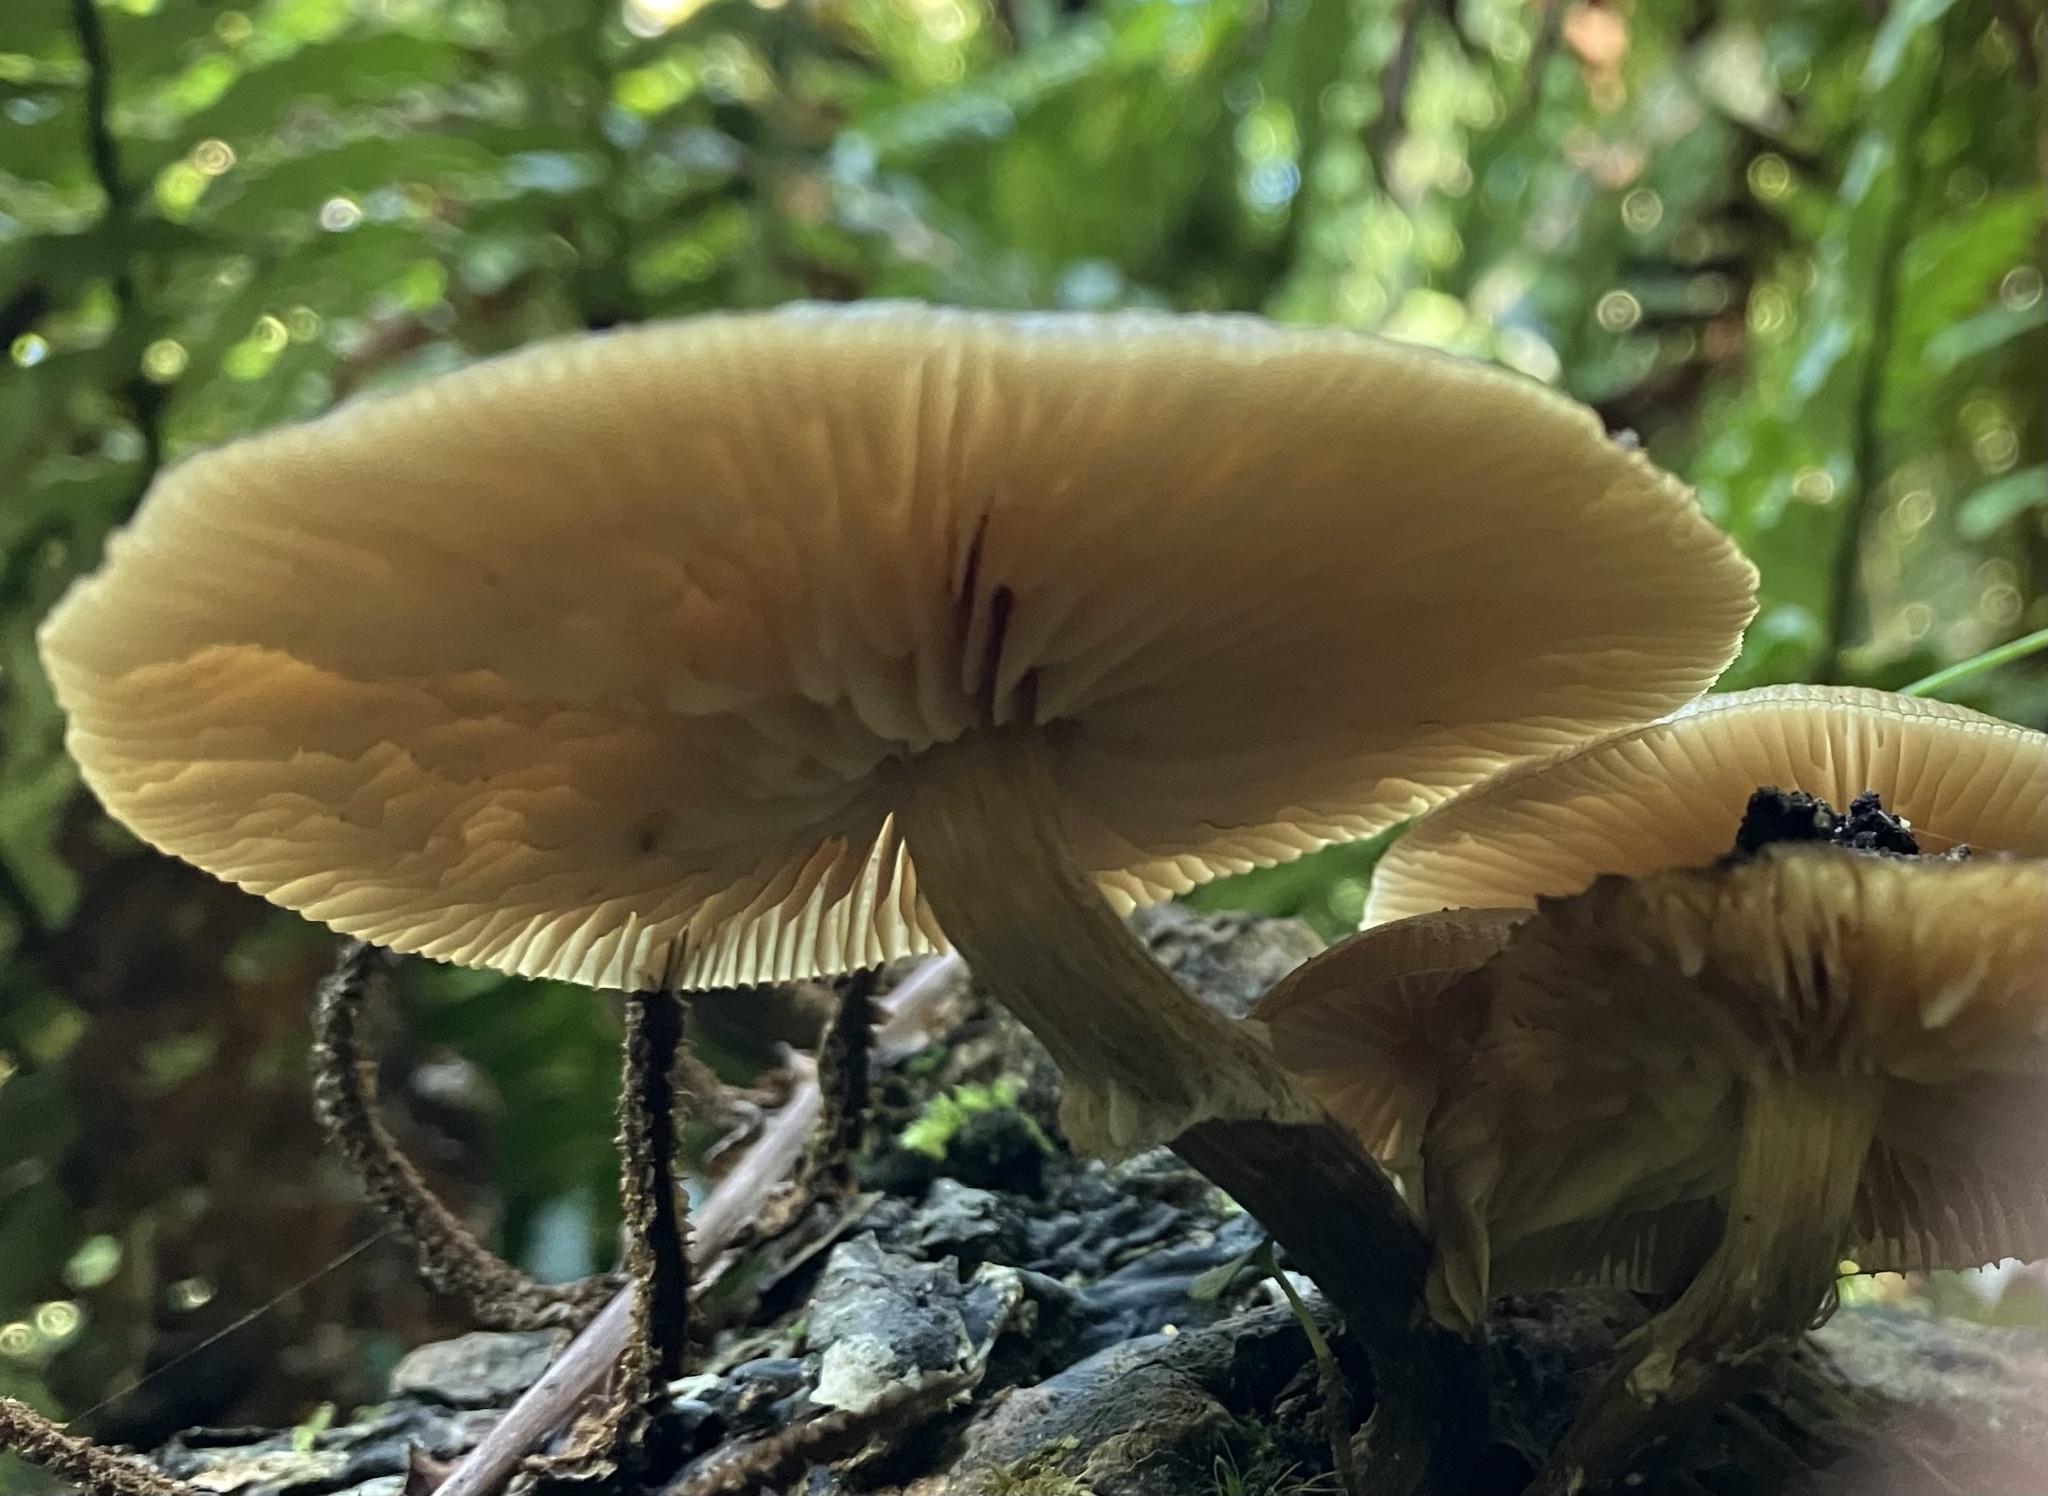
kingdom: Fungi
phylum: Basidiomycota
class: Agaricomycetes
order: Agaricales
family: Physalacriaceae
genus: Armillaria
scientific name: Armillaria novae-zelandiae
